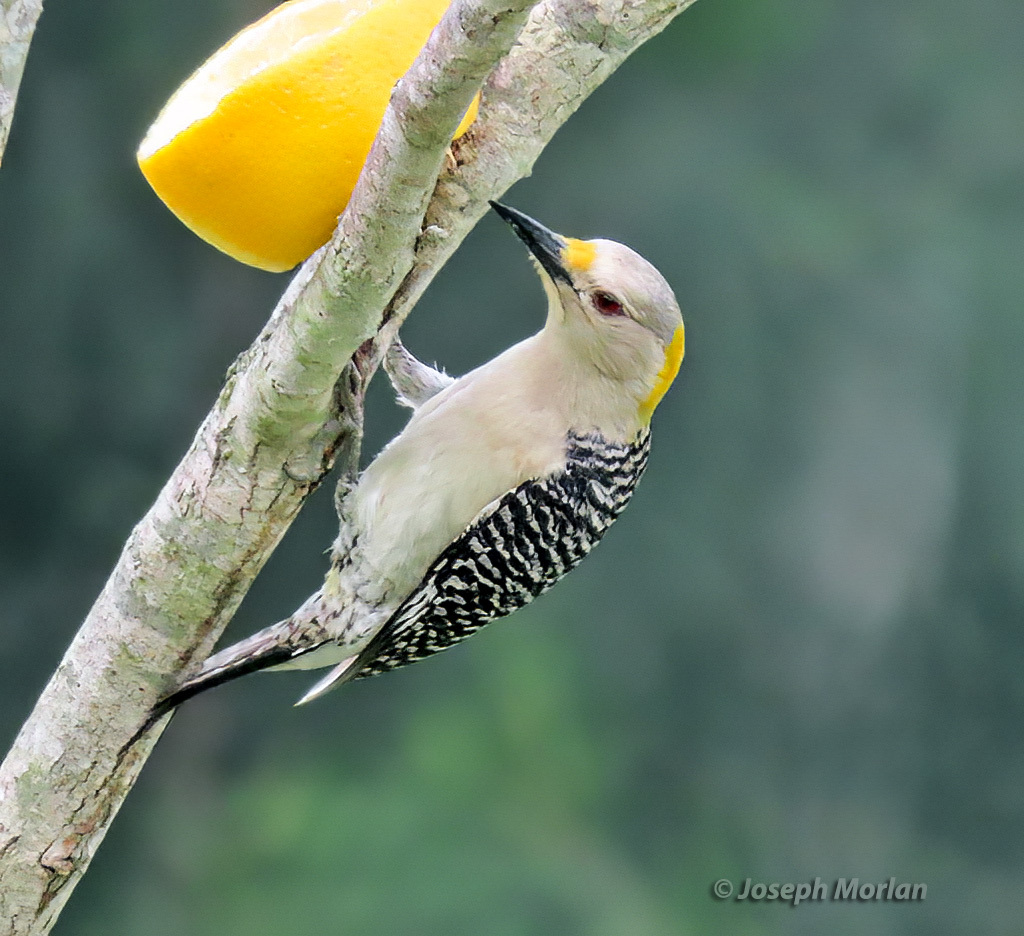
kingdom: Animalia
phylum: Chordata
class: Aves
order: Piciformes
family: Picidae
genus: Melanerpes
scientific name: Melanerpes aurifrons
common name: Golden-fronted woodpecker
